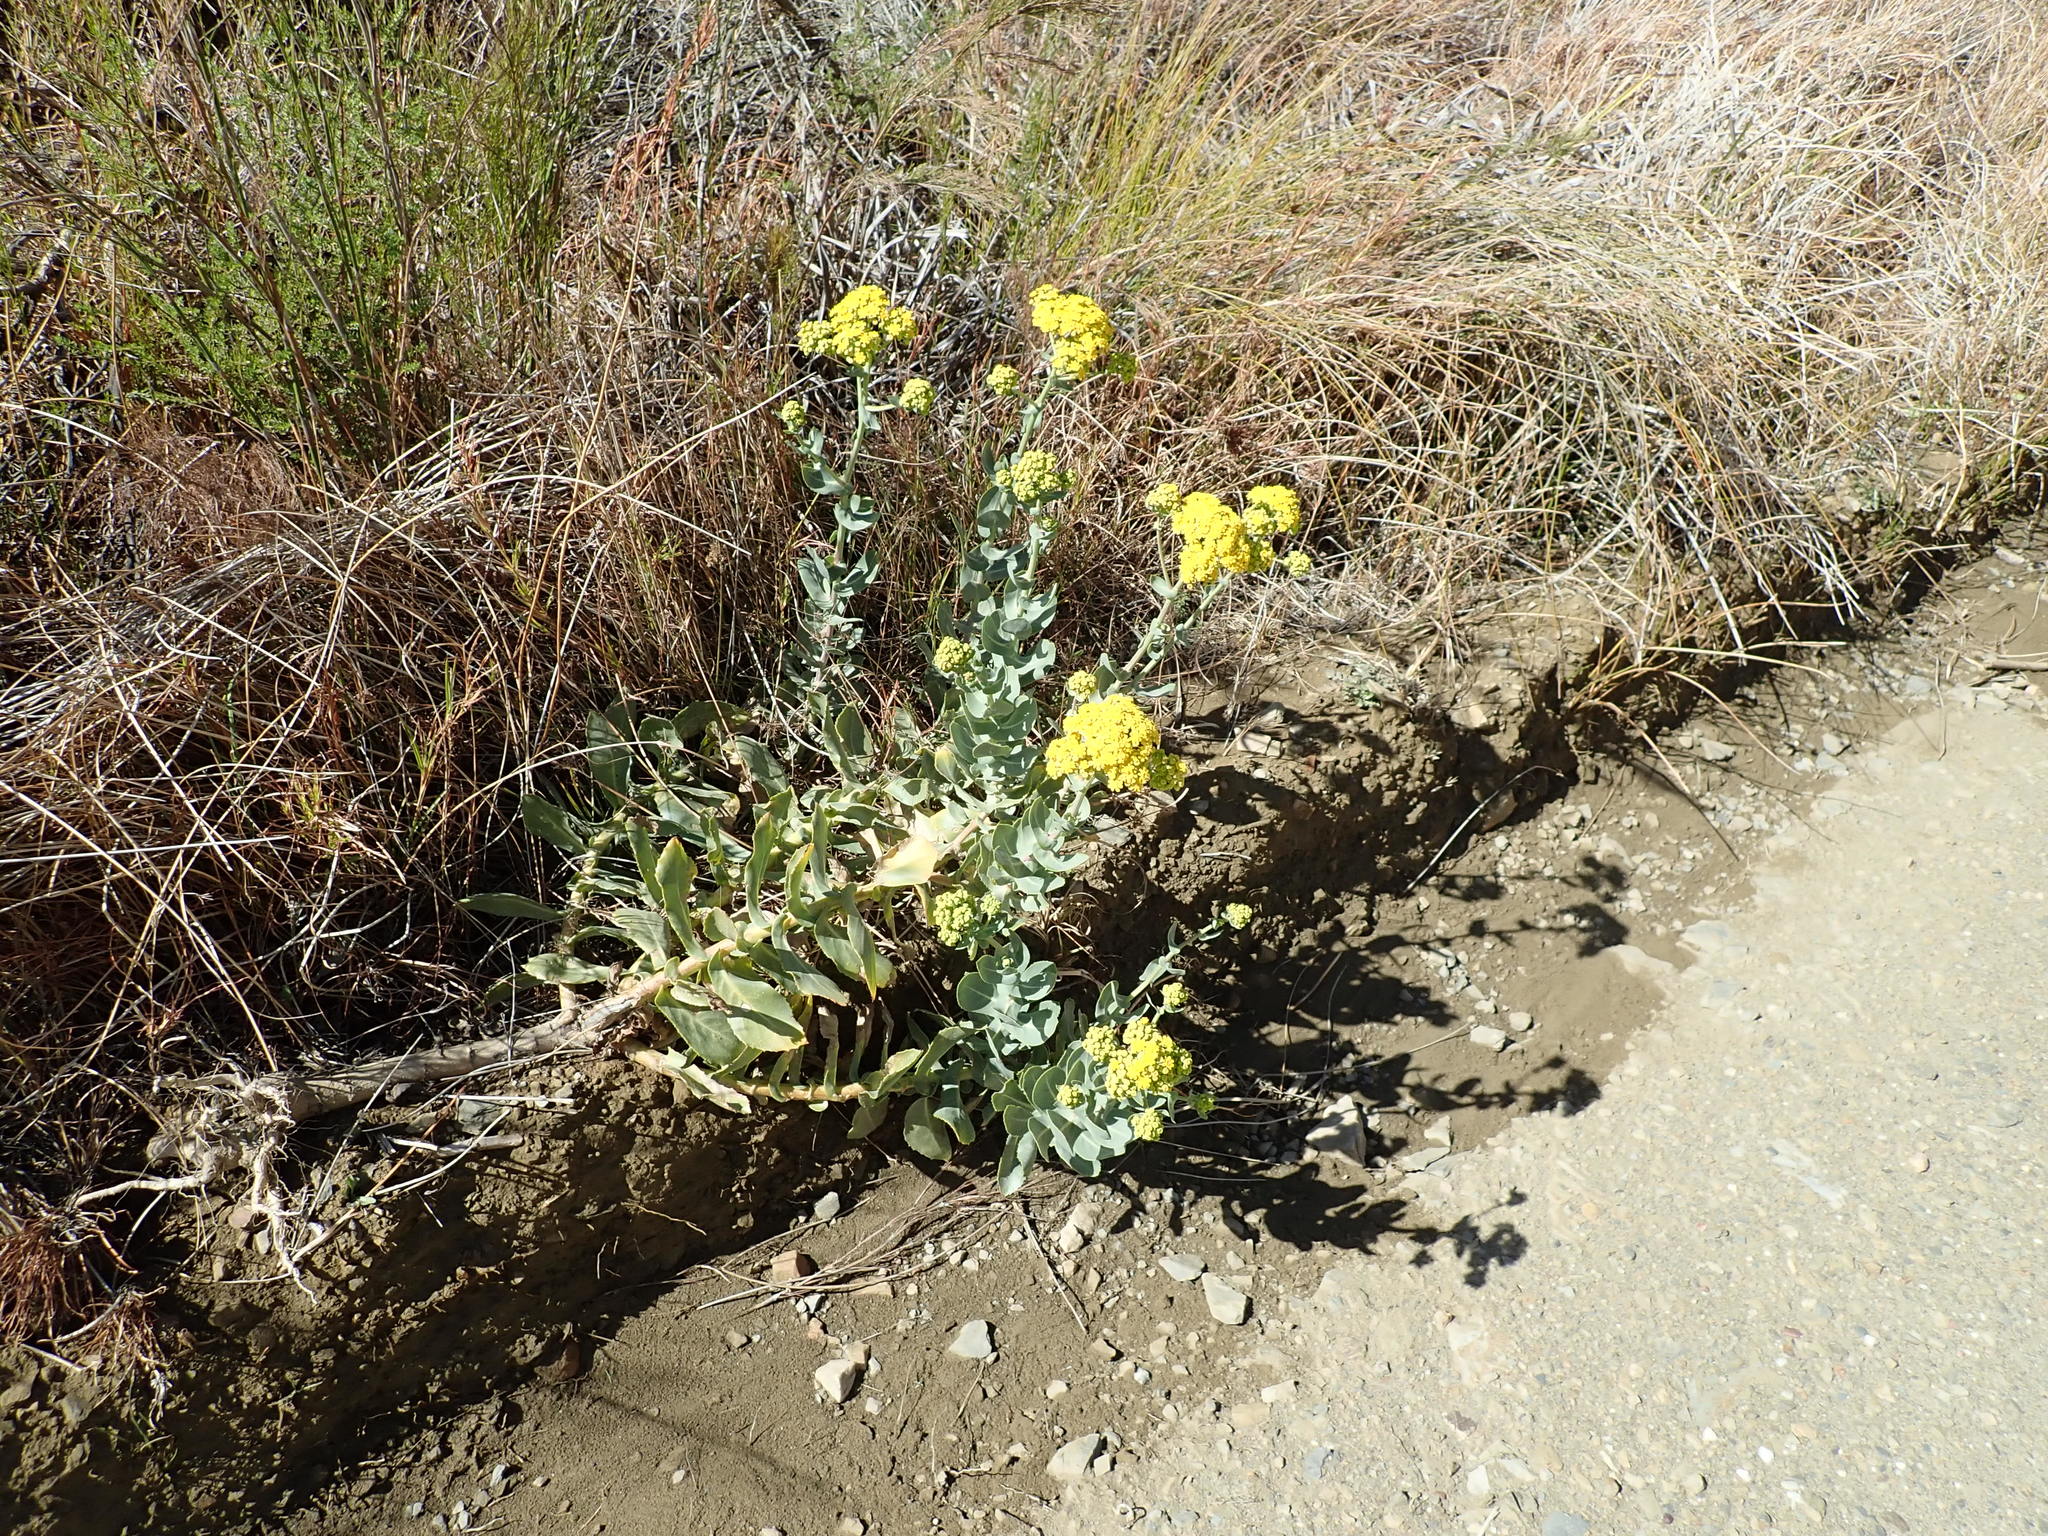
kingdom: Plantae
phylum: Tracheophyta
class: Magnoliopsida
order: Asterales
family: Asteraceae
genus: Othonna
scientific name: Othonna parviflora
